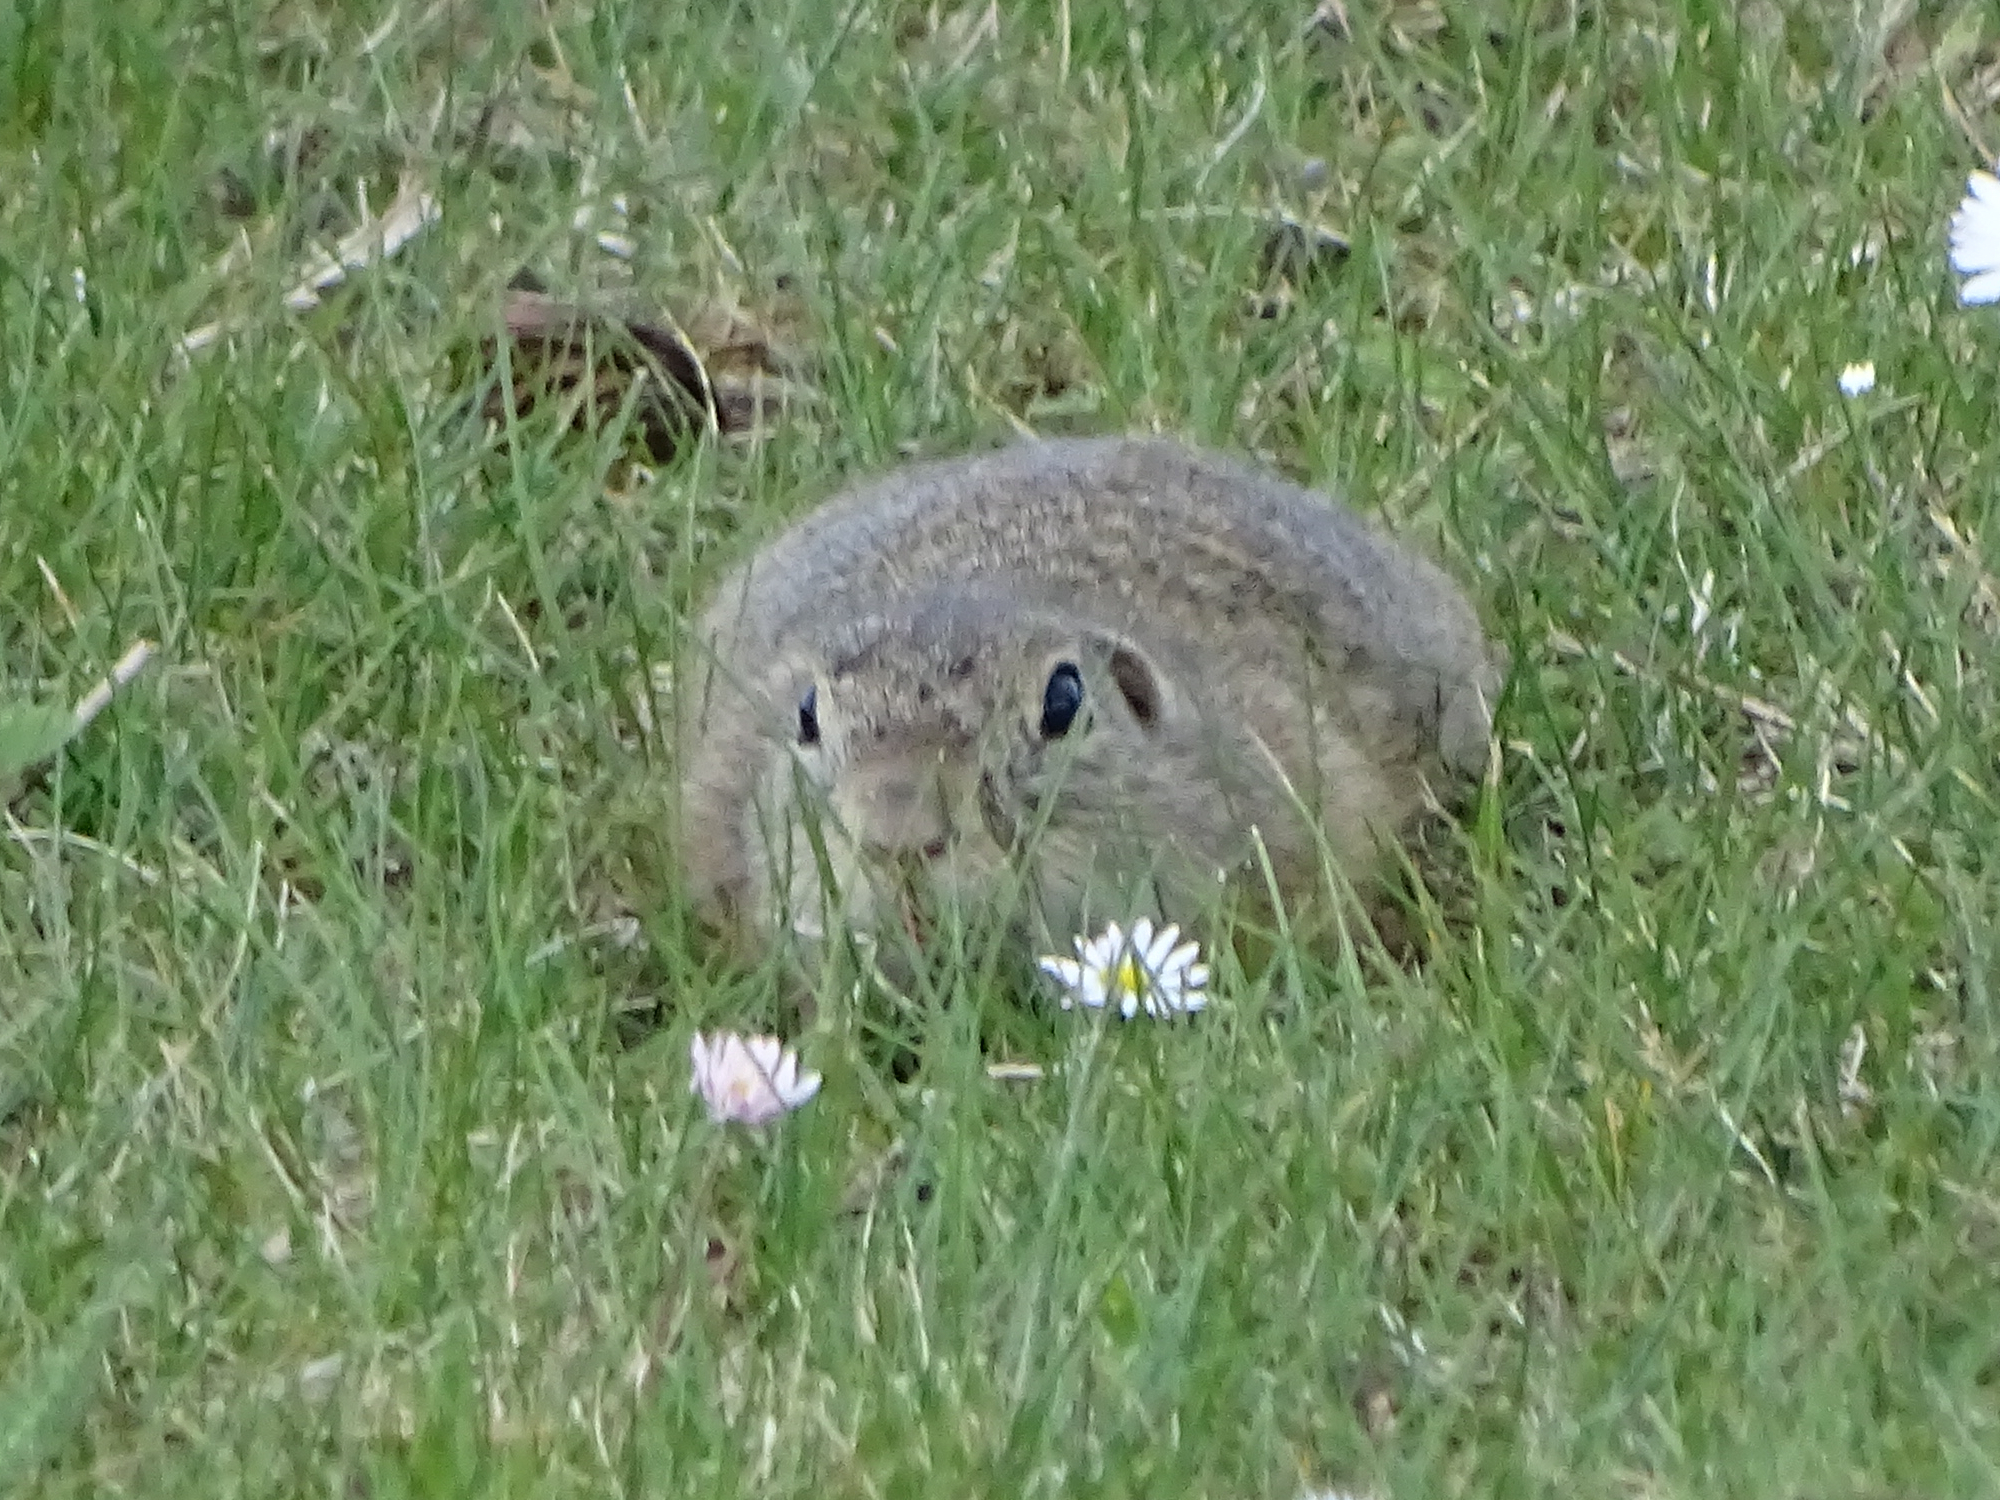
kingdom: Animalia
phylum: Chordata
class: Mammalia
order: Rodentia
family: Sciuridae
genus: Spermophilus
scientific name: Spermophilus citellus
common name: European ground squirrel
